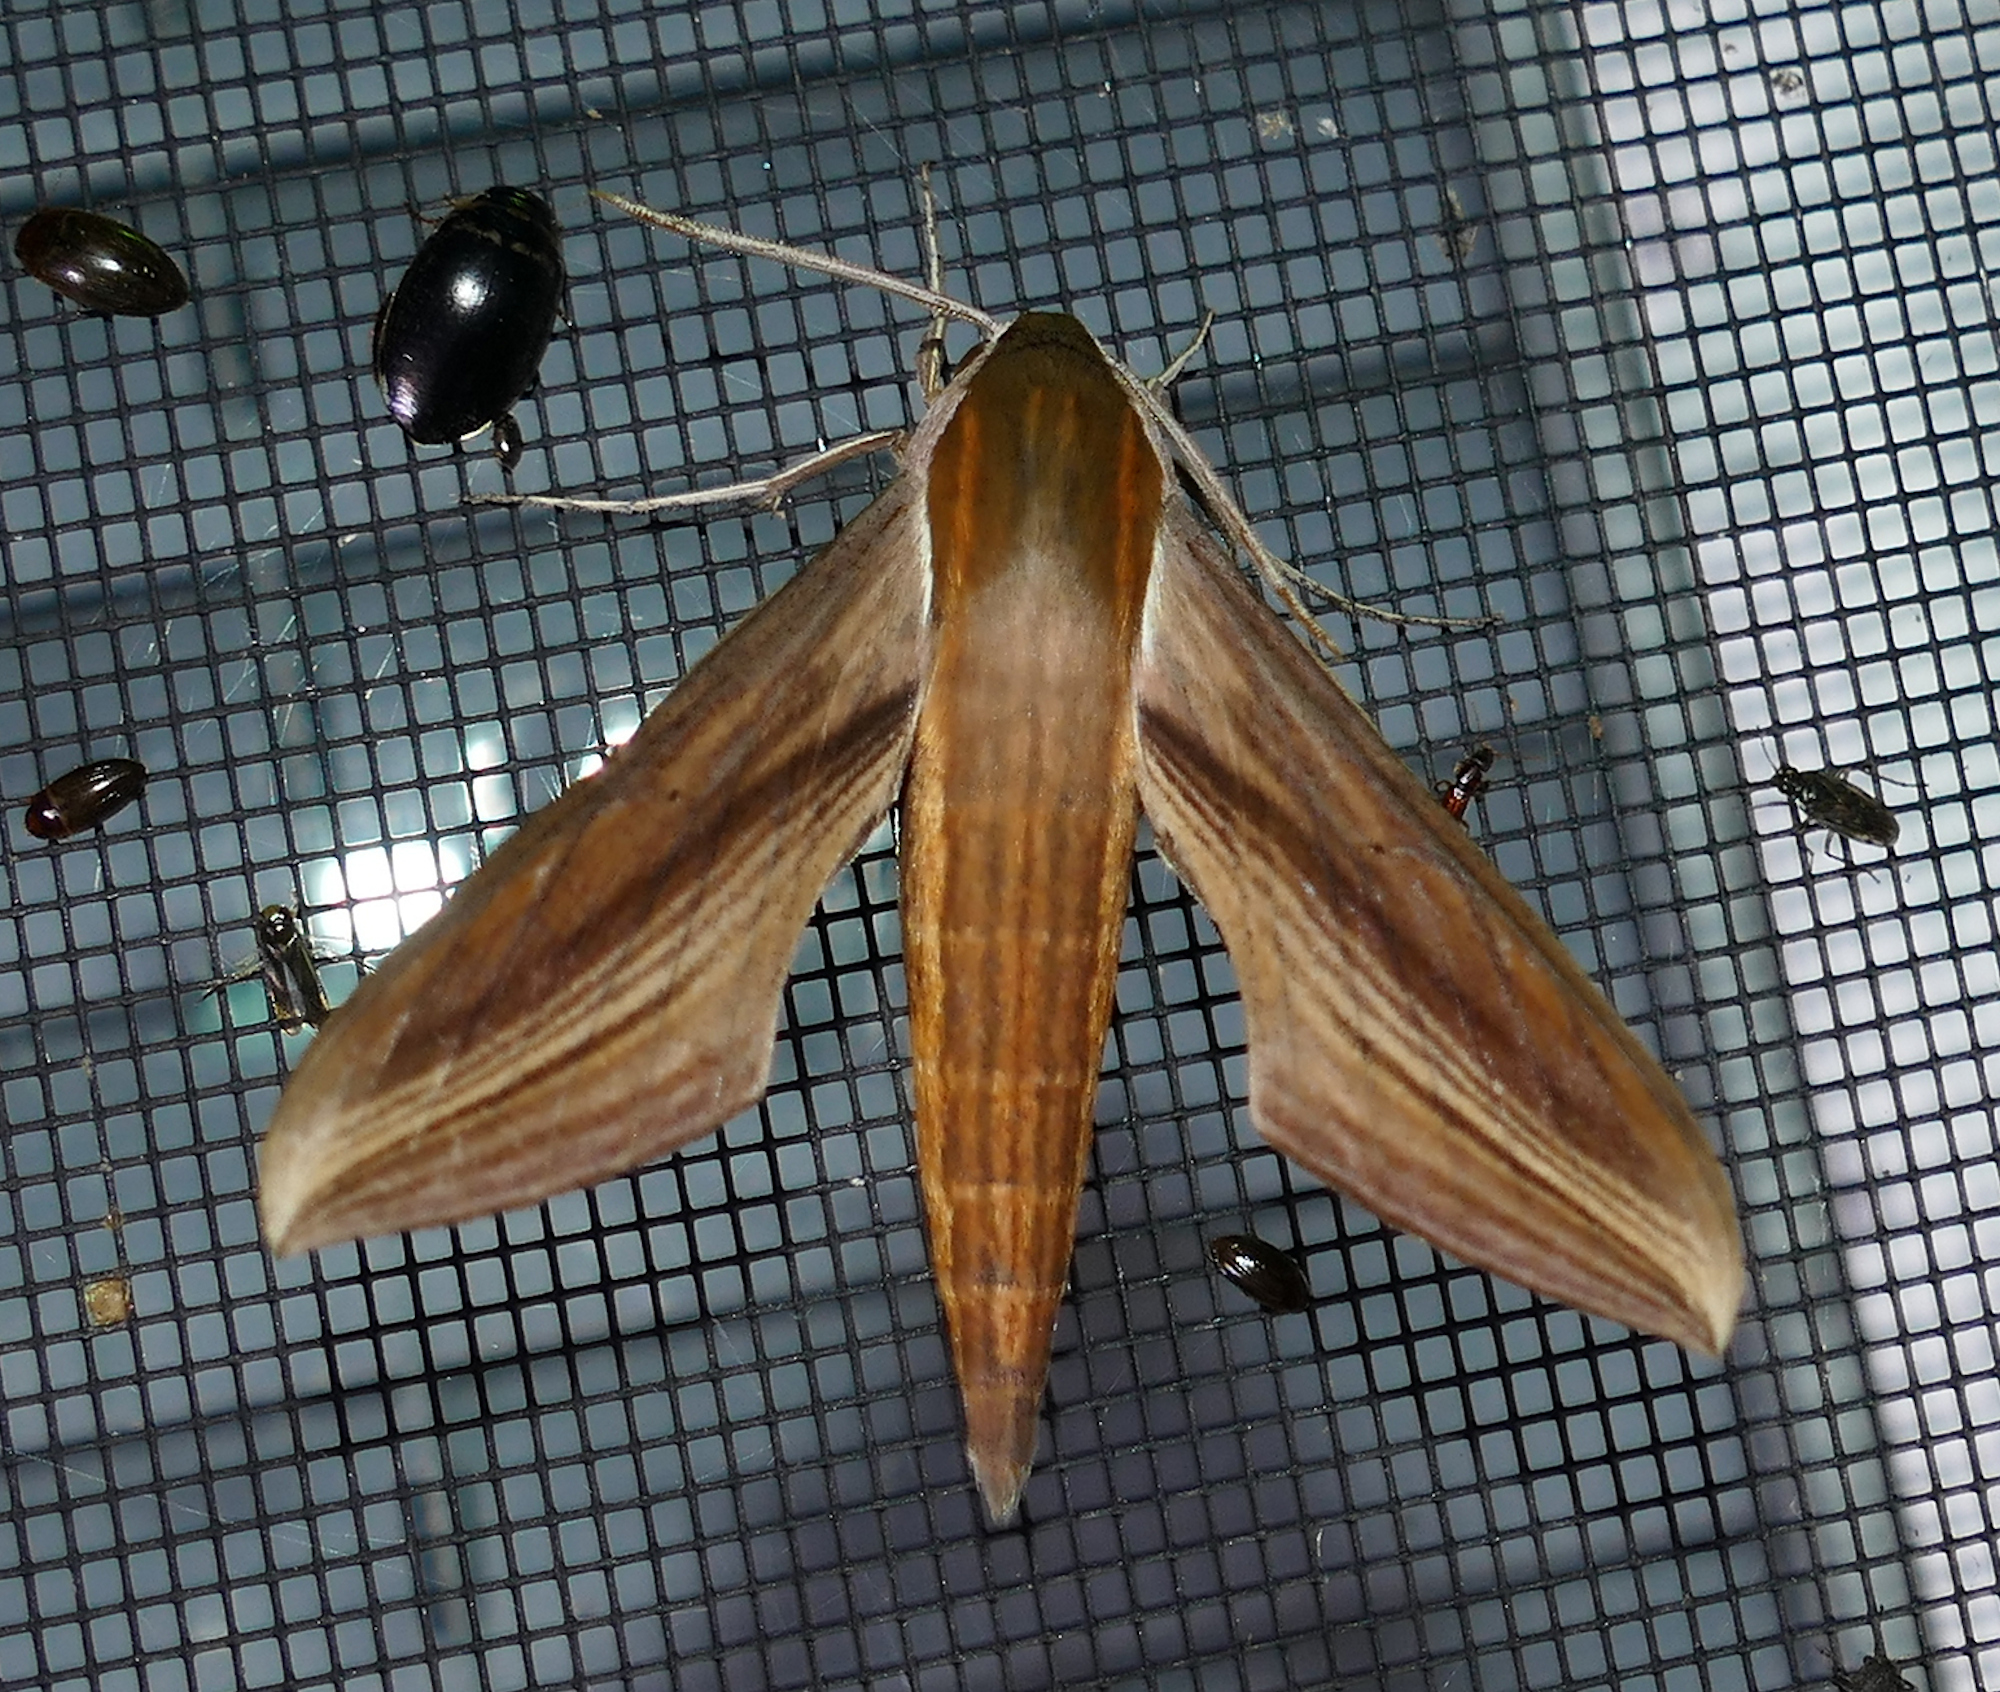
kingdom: Animalia
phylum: Arthropoda
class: Insecta
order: Lepidoptera
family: Sphingidae
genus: Xylophanes
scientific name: Xylophanes tersa
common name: Tersa sphinx
